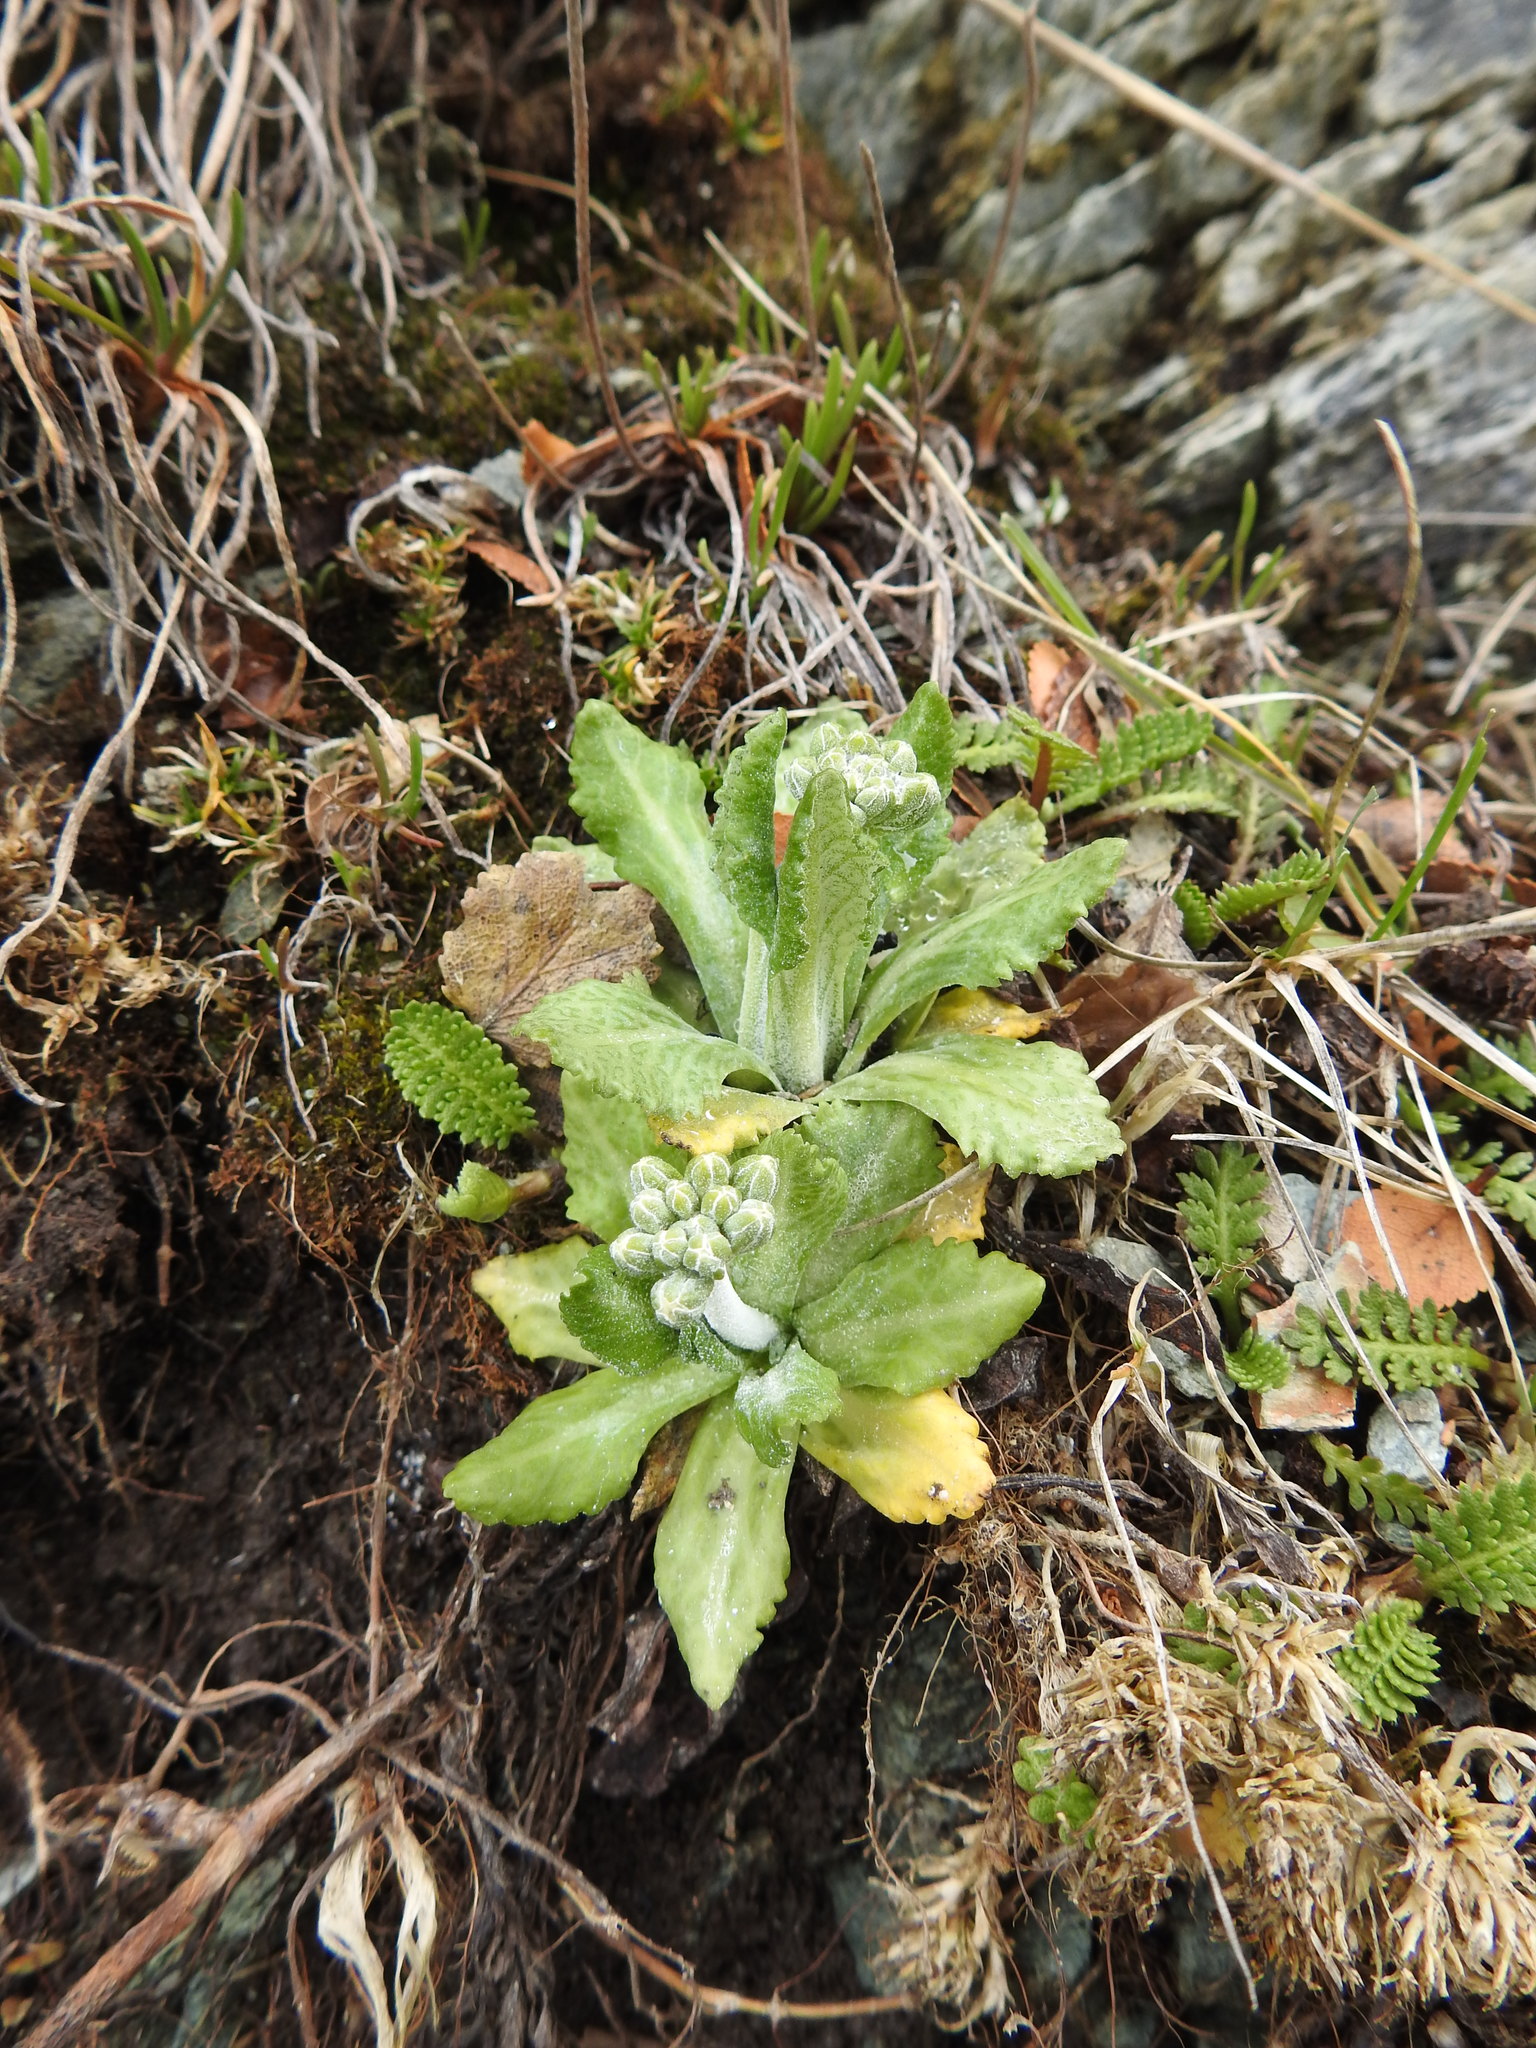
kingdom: Plantae
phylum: Tracheophyta
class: Magnoliopsida
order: Ericales
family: Primulaceae
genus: Primula
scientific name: Primula magellanica
